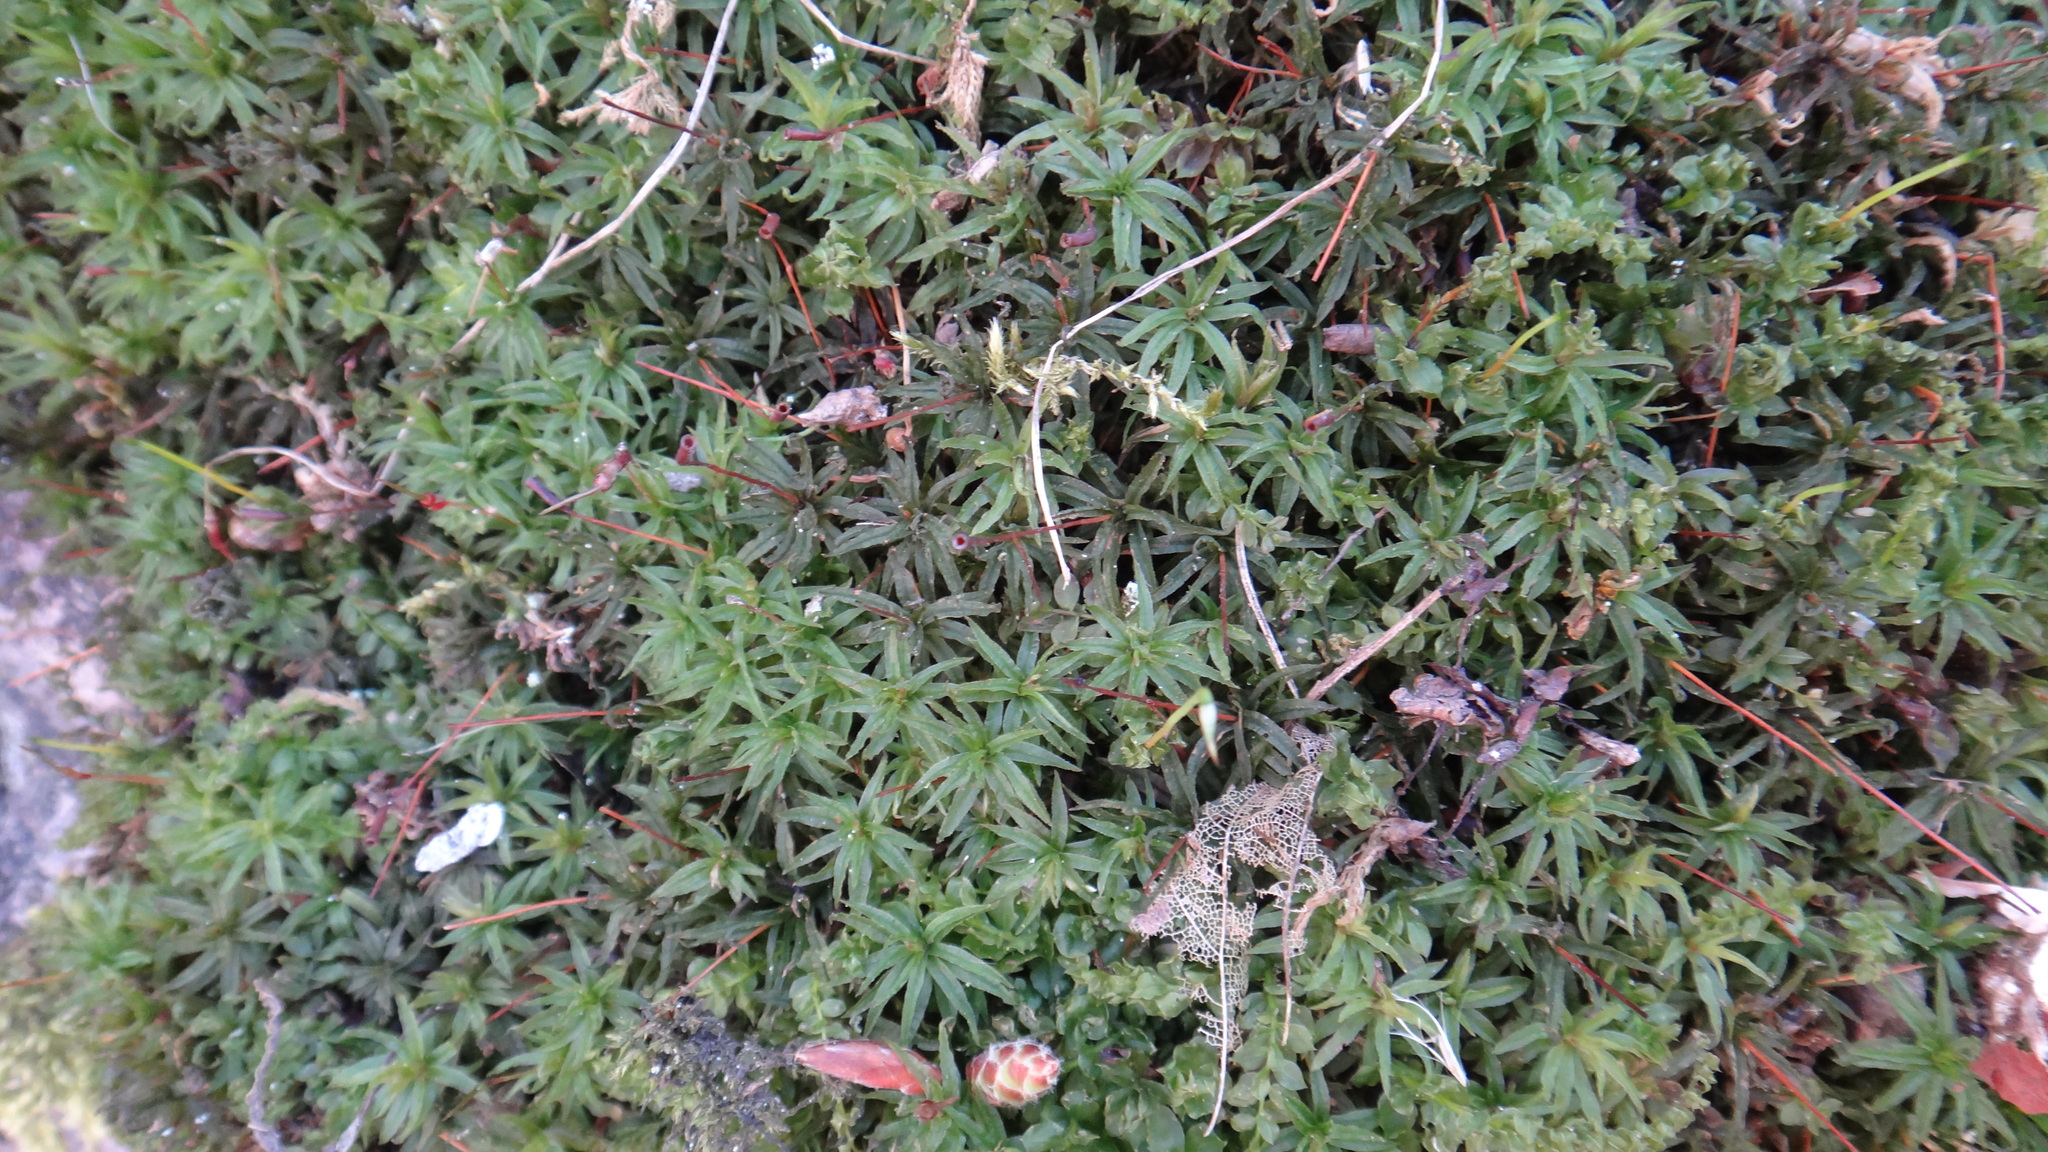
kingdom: Plantae
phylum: Bryophyta
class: Polytrichopsida
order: Polytrichales
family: Polytrichaceae
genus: Atrichum
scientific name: Atrichum undulatum
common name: Common smoothcap
